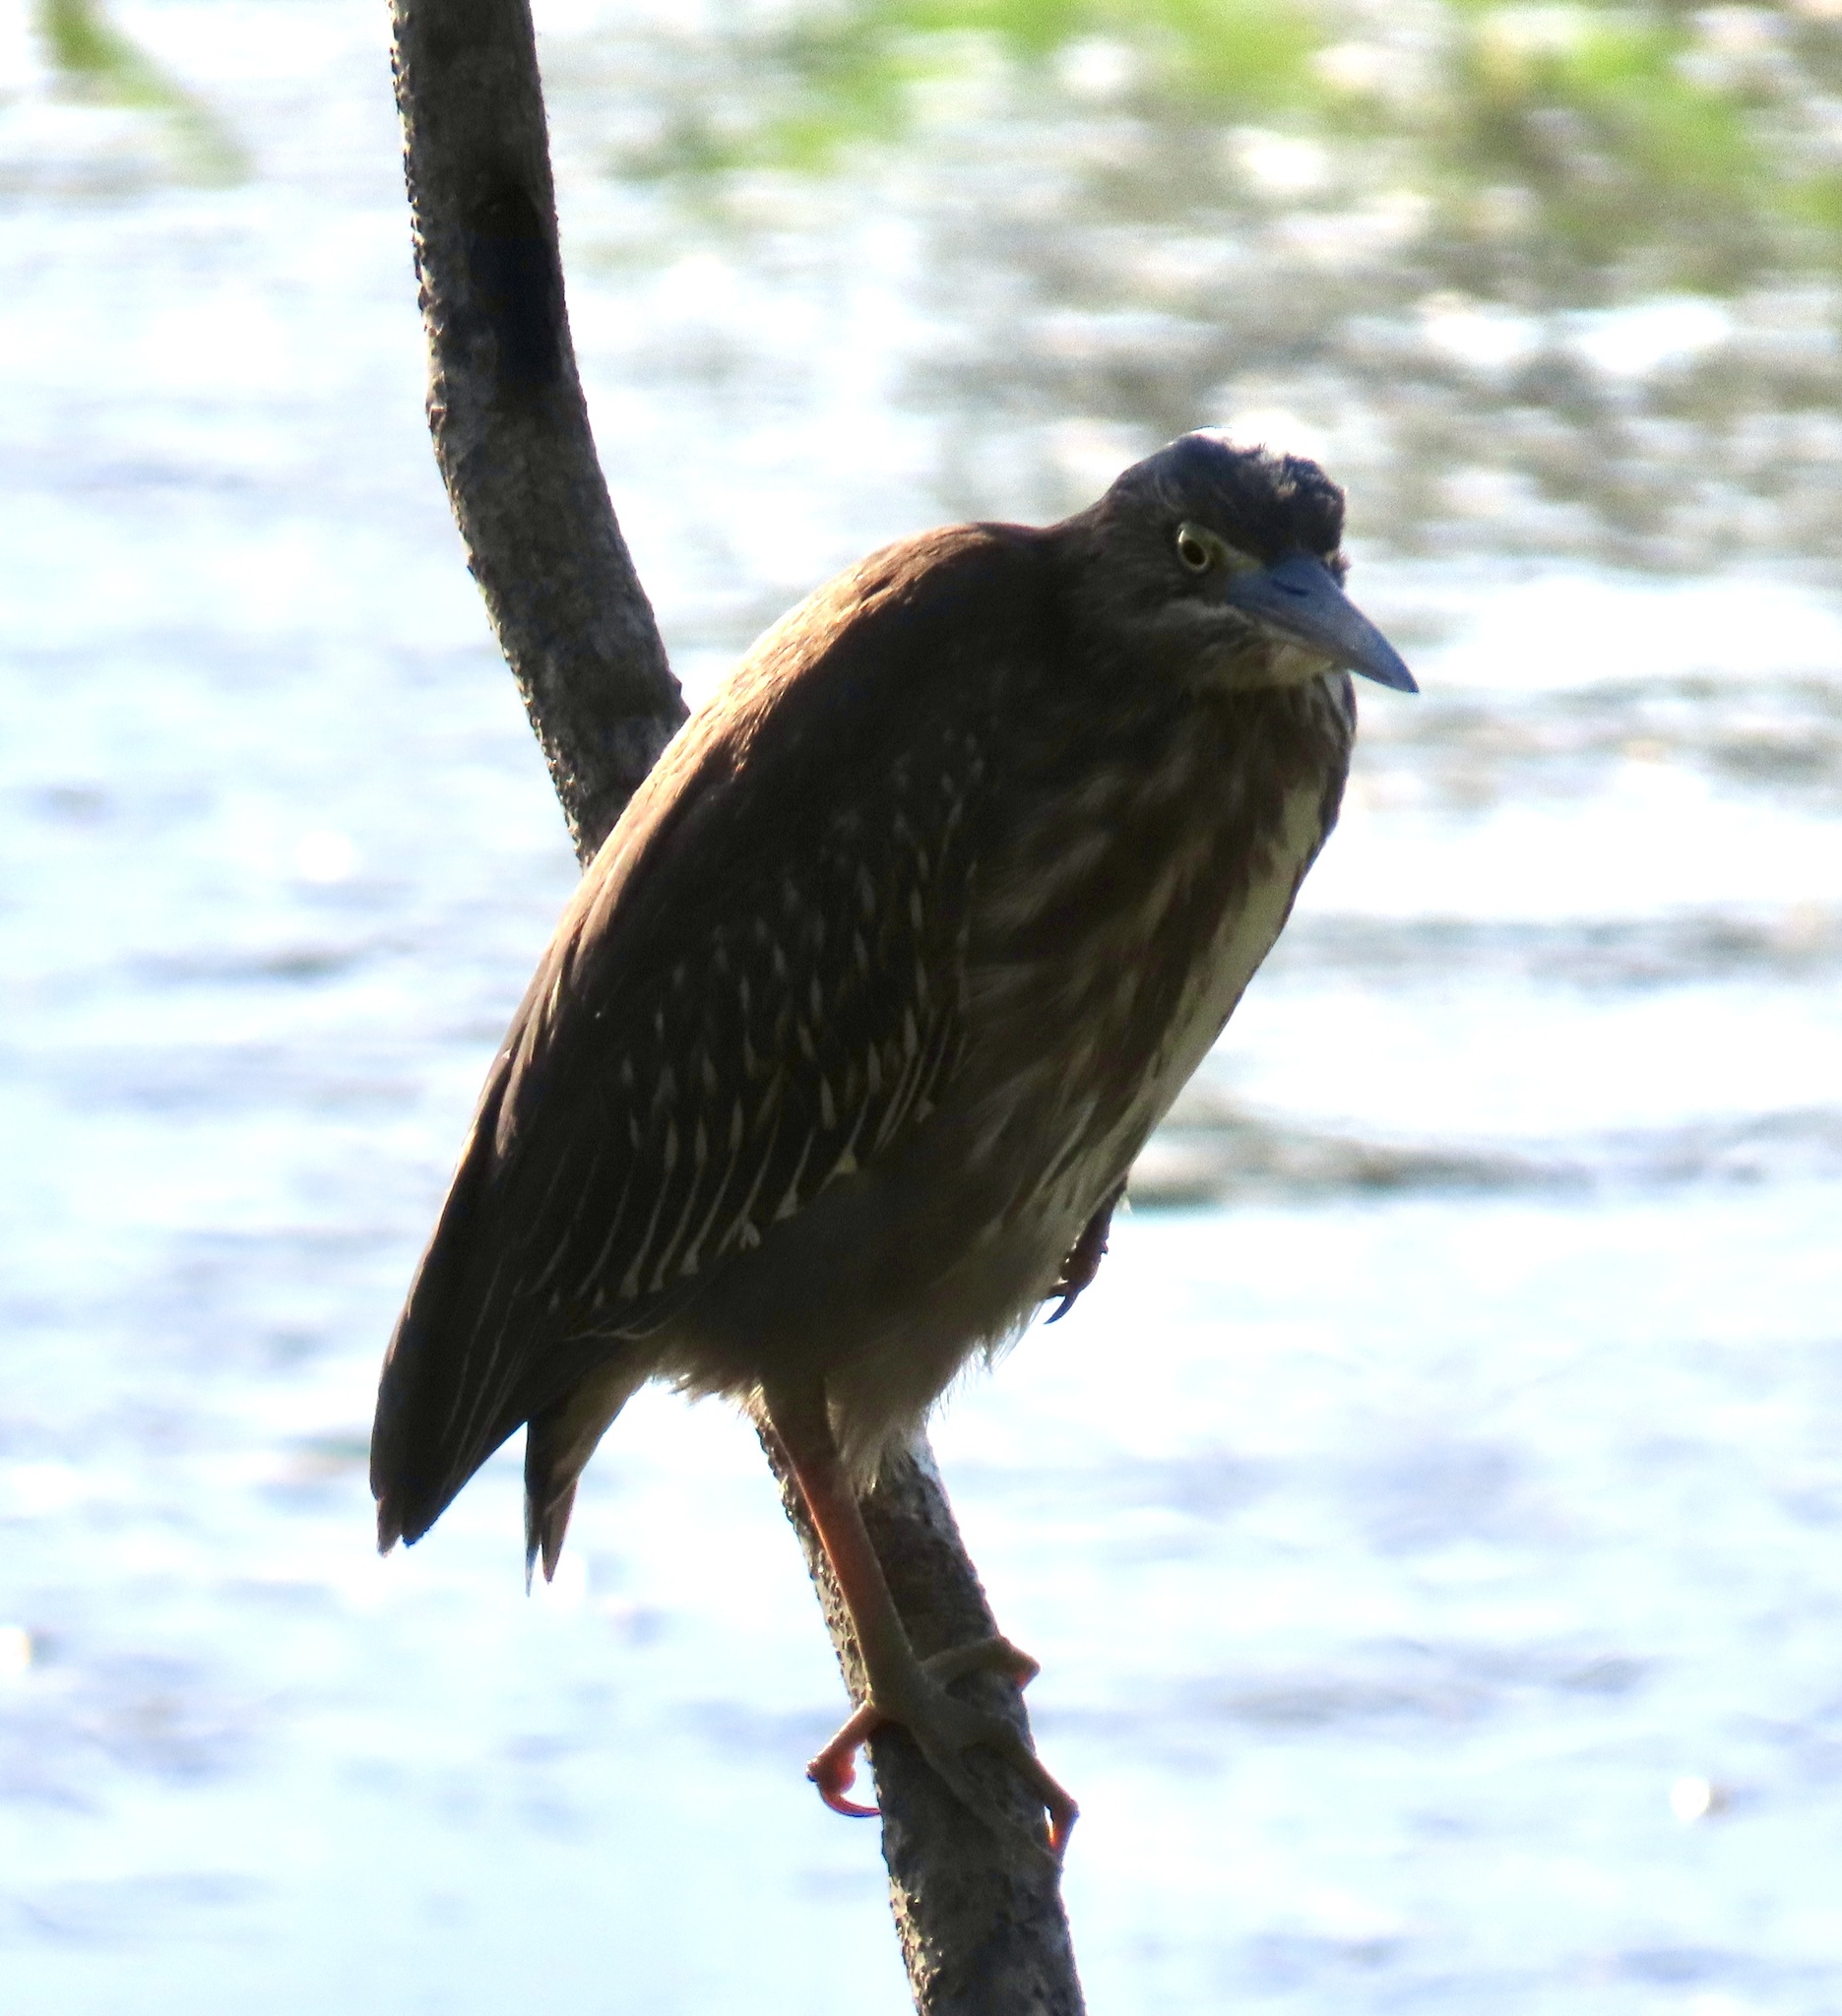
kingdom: Animalia
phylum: Chordata
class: Aves
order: Pelecaniformes
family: Ardeidae
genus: Butorides
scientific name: Butorides virescens
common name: Green heron
